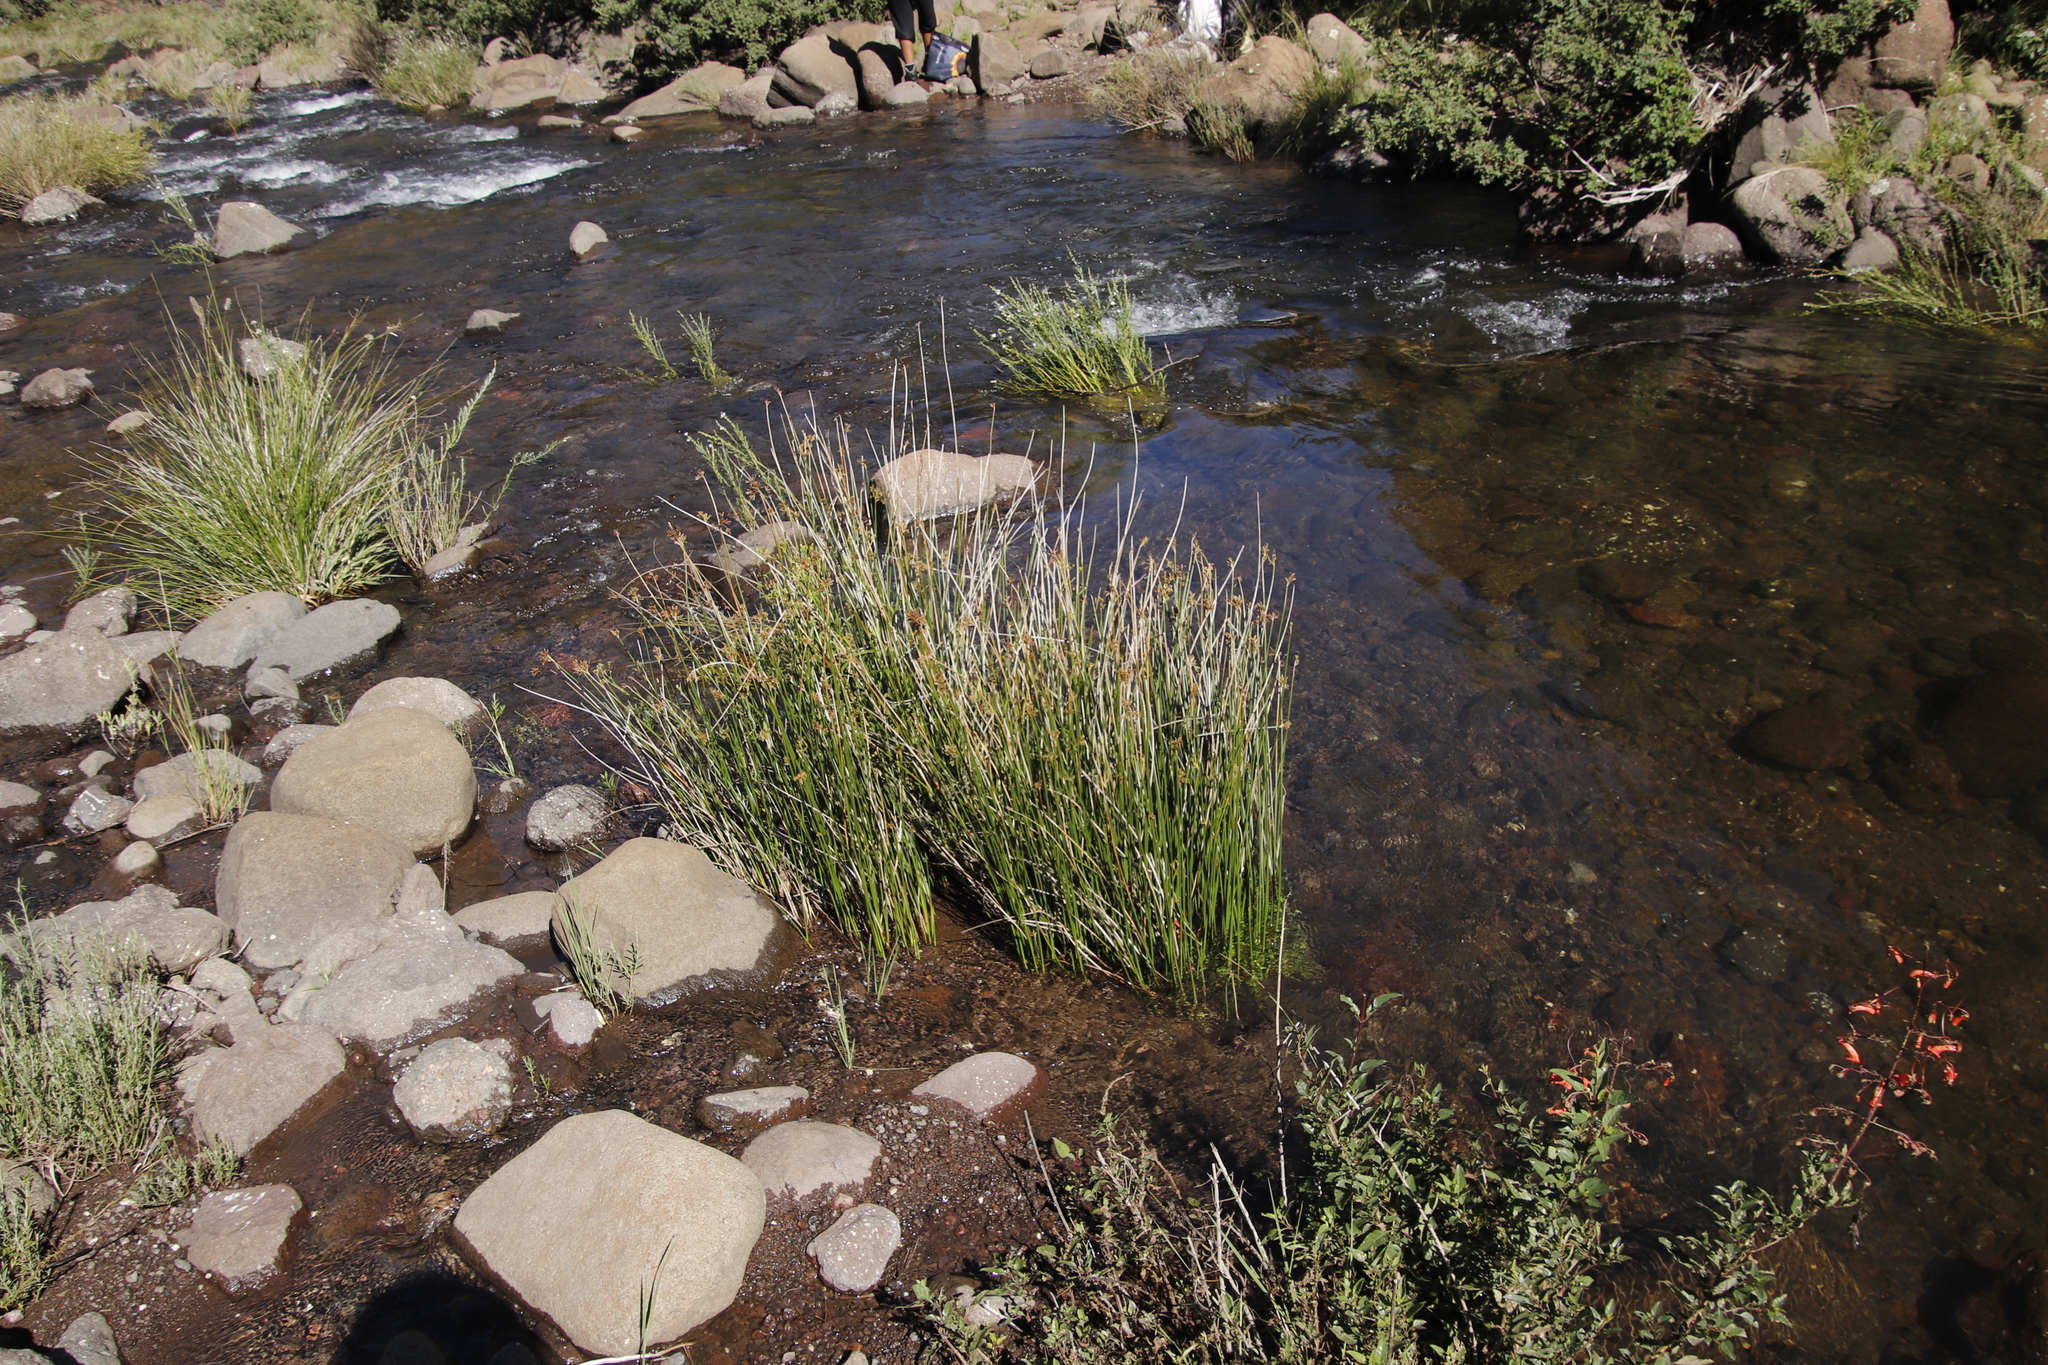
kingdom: Plantae
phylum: Tracheophyta
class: Liliopsida
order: Poales
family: Cyperaceae
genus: Cyperus
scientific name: Cyperus marginatus
